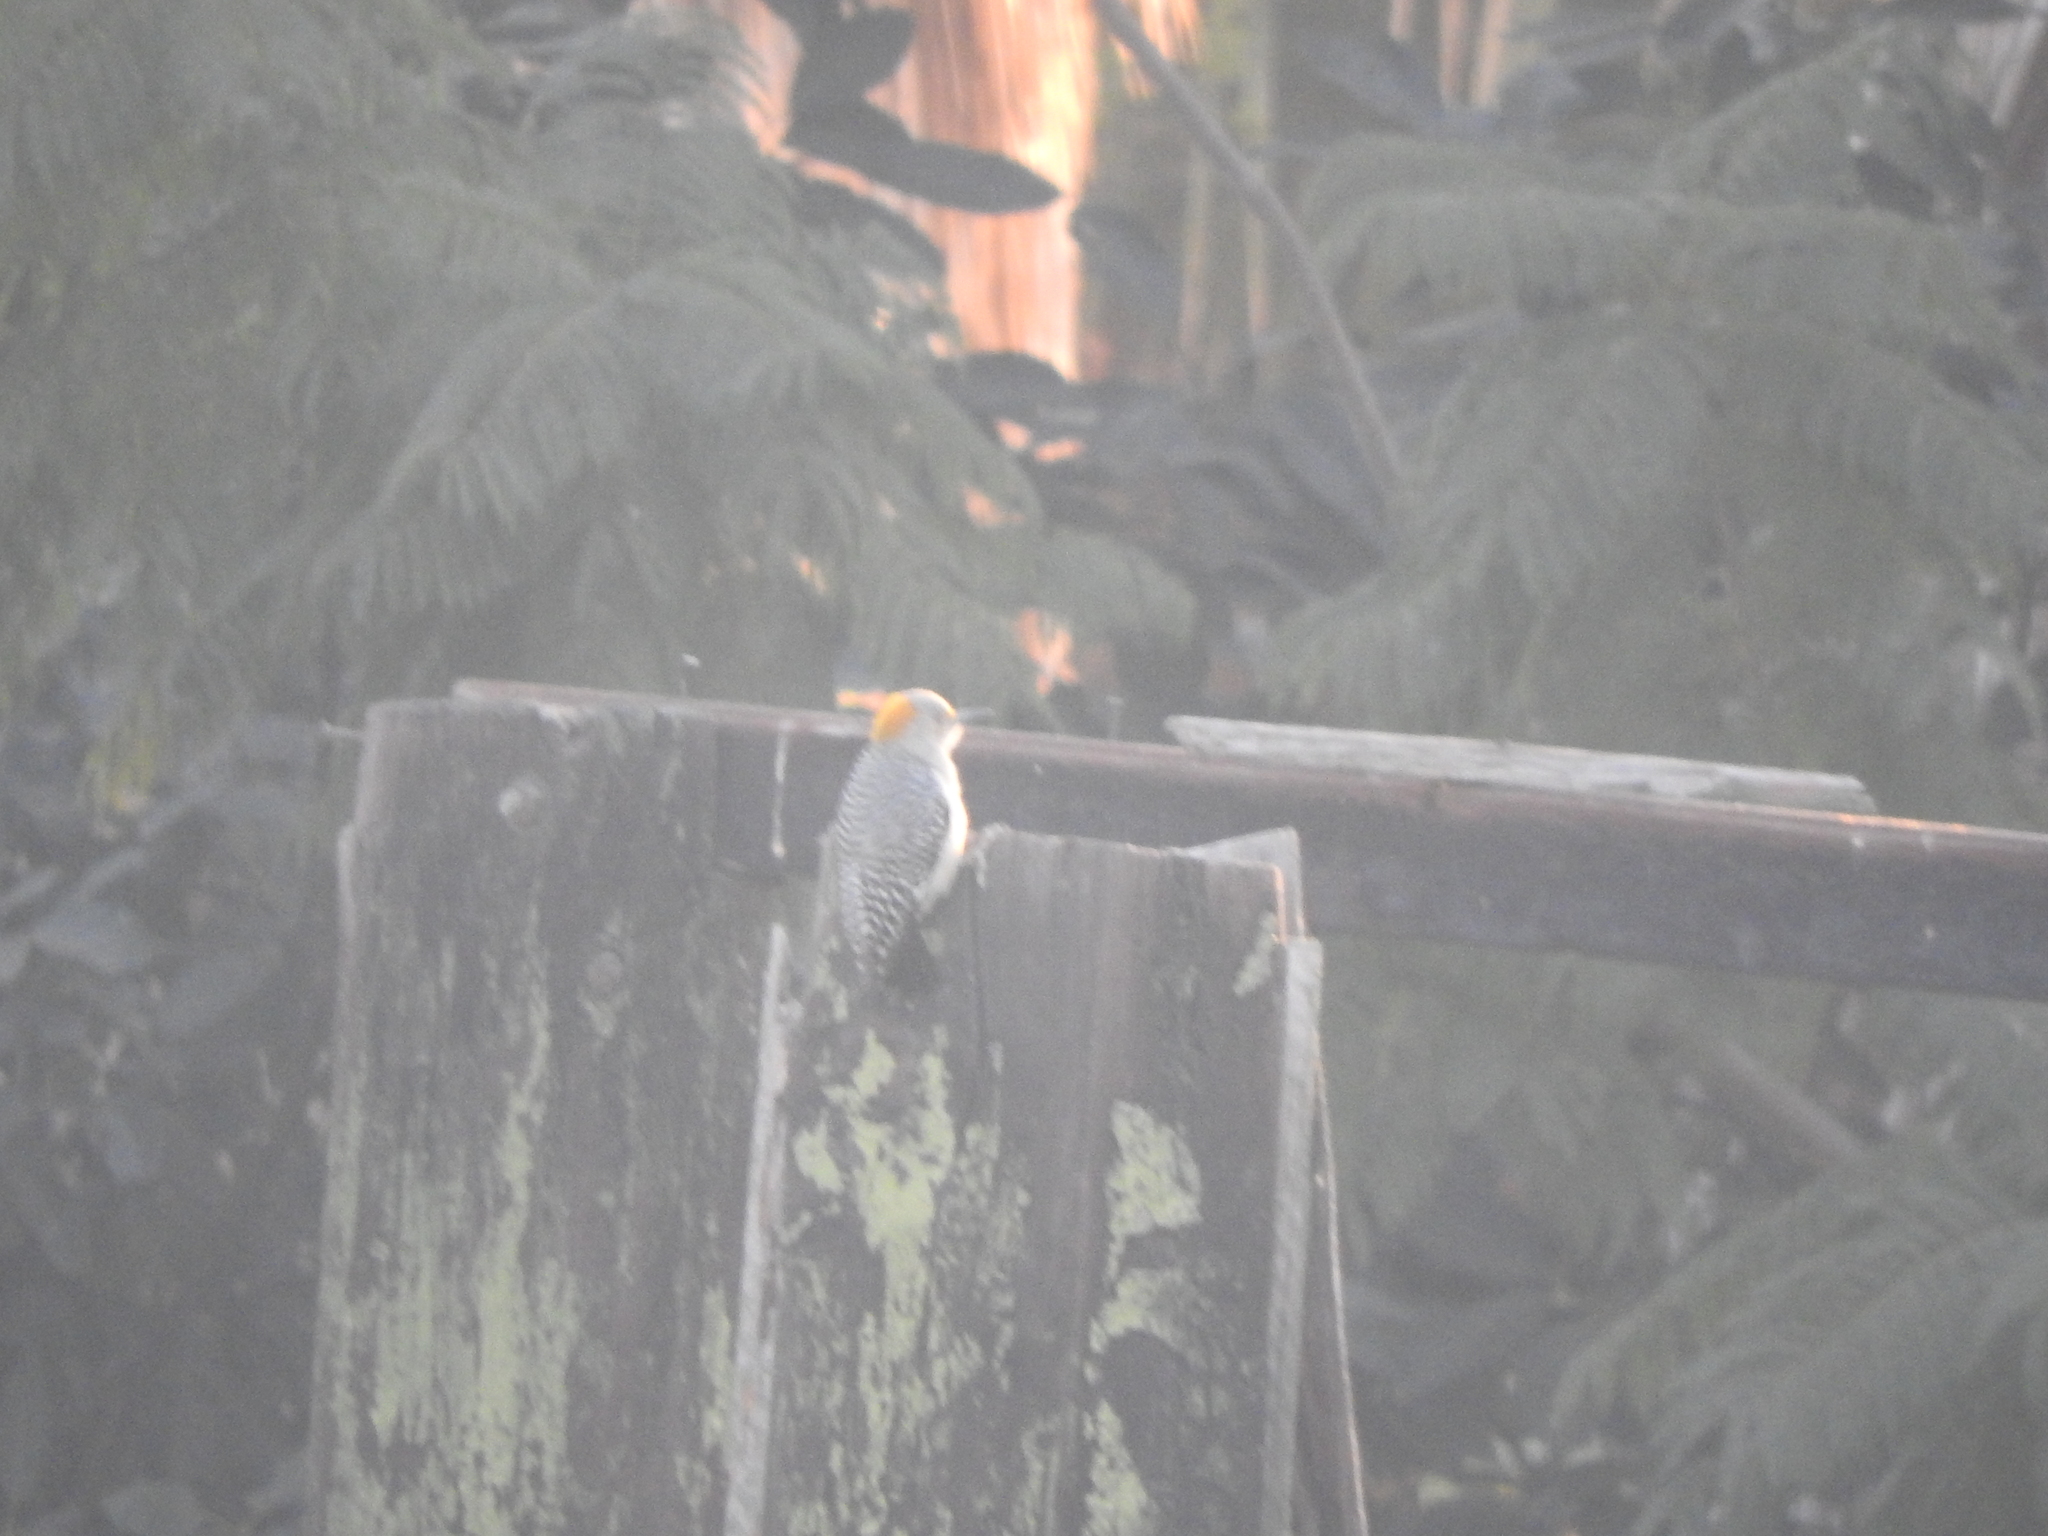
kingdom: Animalia
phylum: Chordata
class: Aves
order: Piciformes
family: Picidae
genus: Melanerpes
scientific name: Melanerpes aurifrons
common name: Golden-fronted woodpecker
